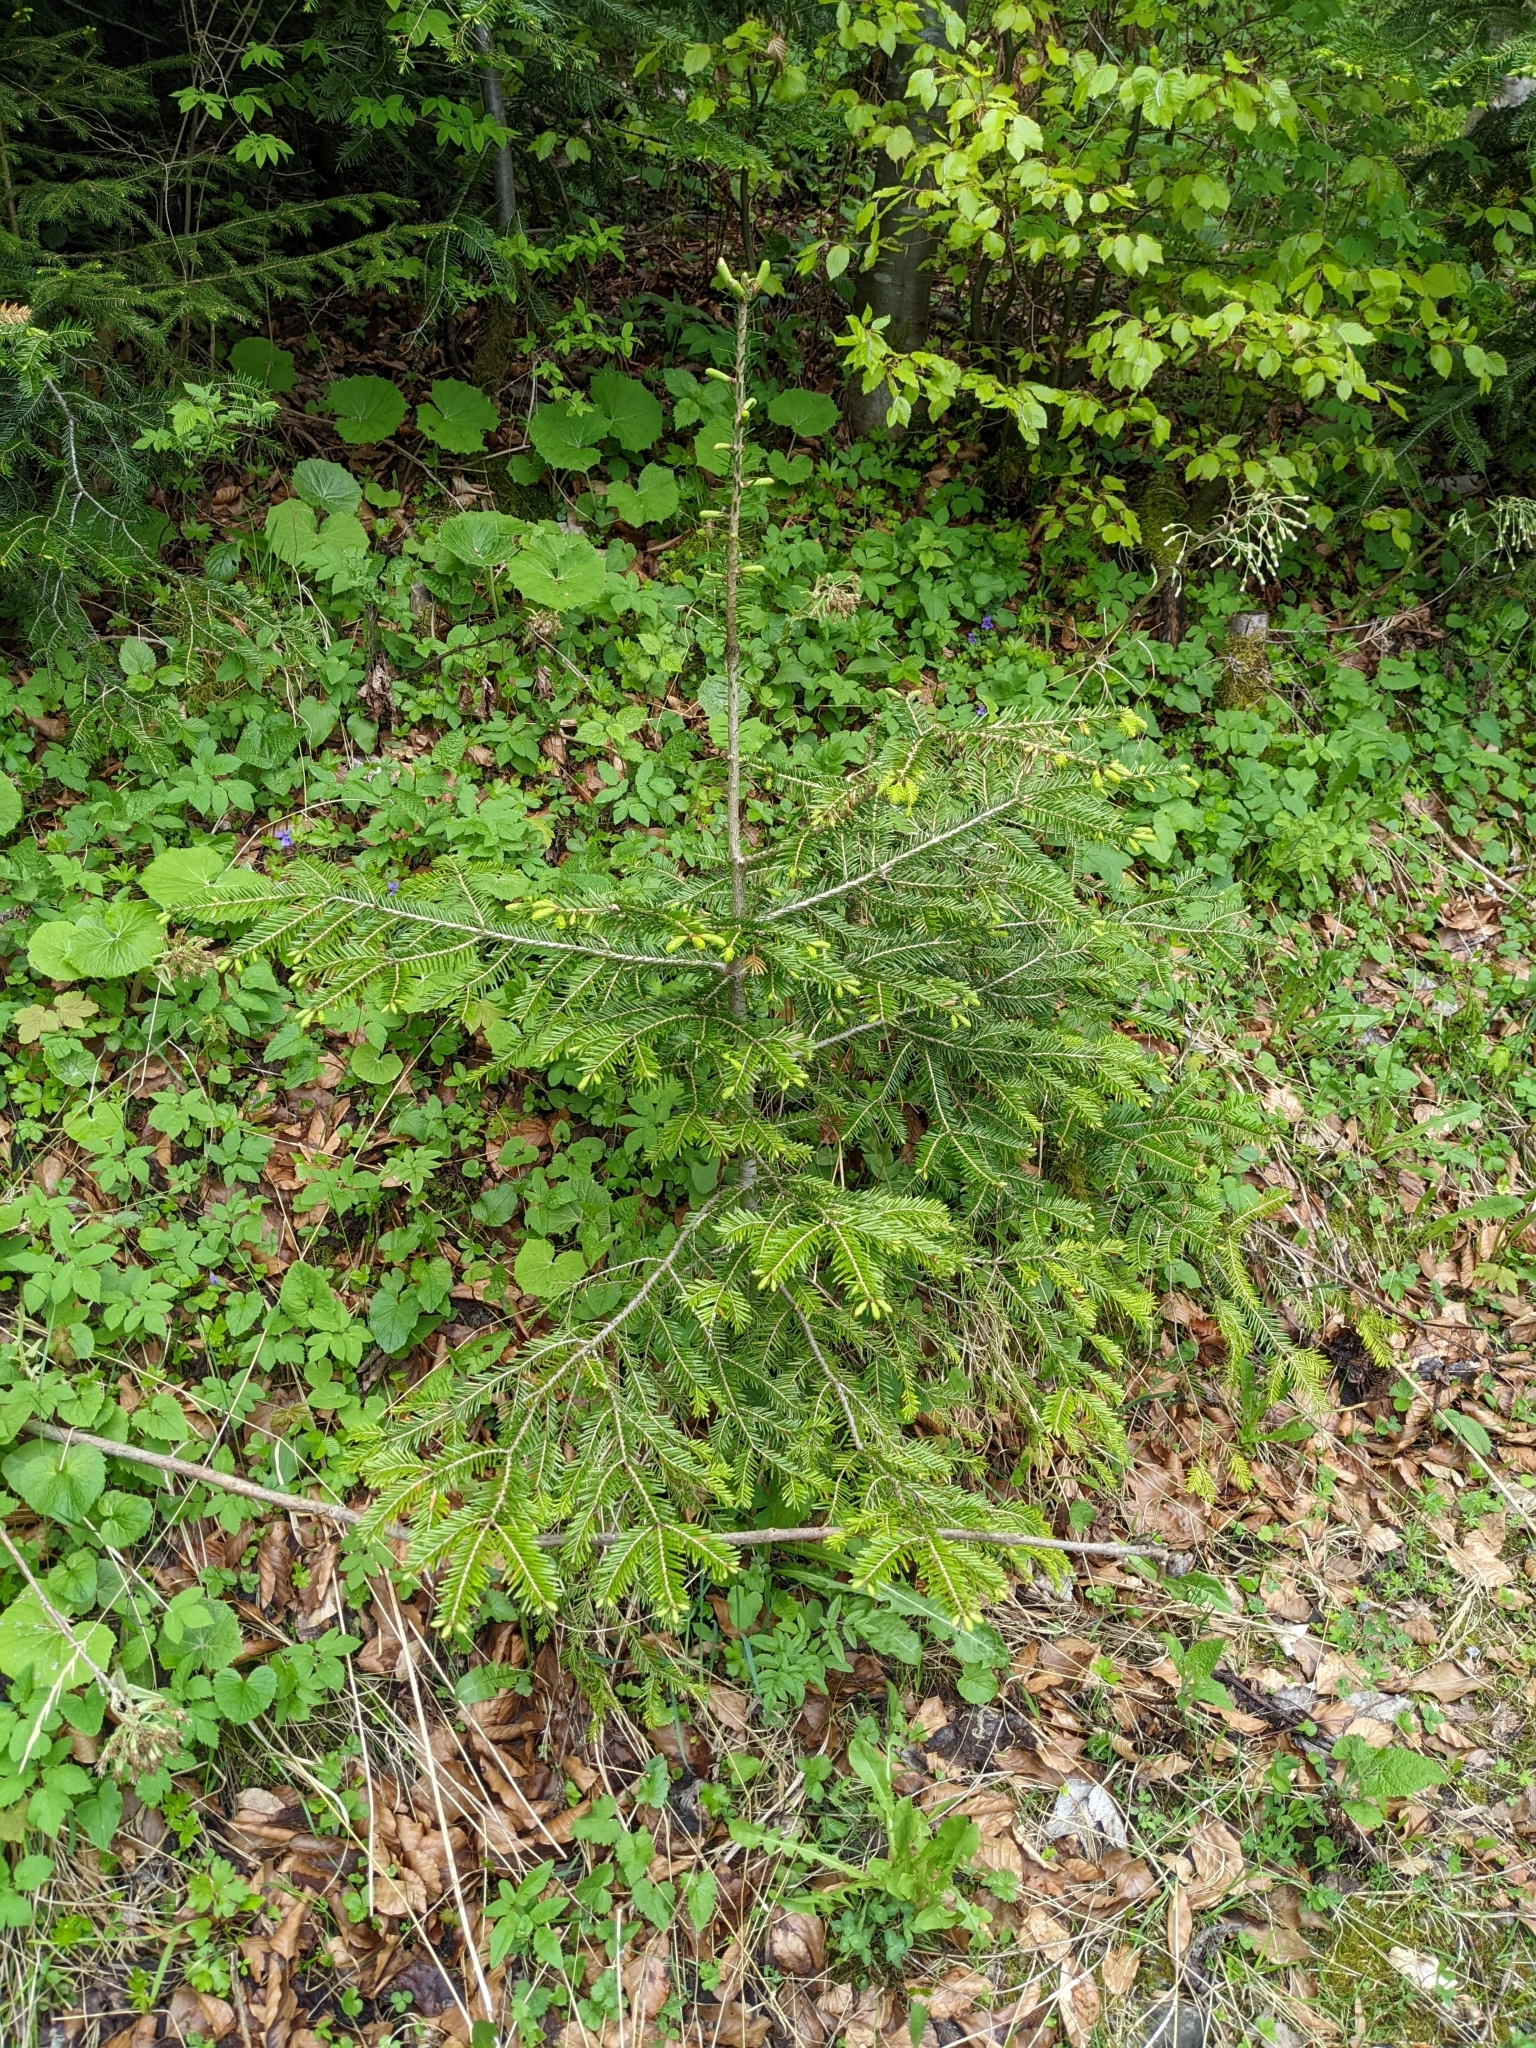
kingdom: Plantae
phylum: Tracheophyta
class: Pinopsida
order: Pinales
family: Pinaceae
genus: Picea
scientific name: Picea abies
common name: Norway spruce
